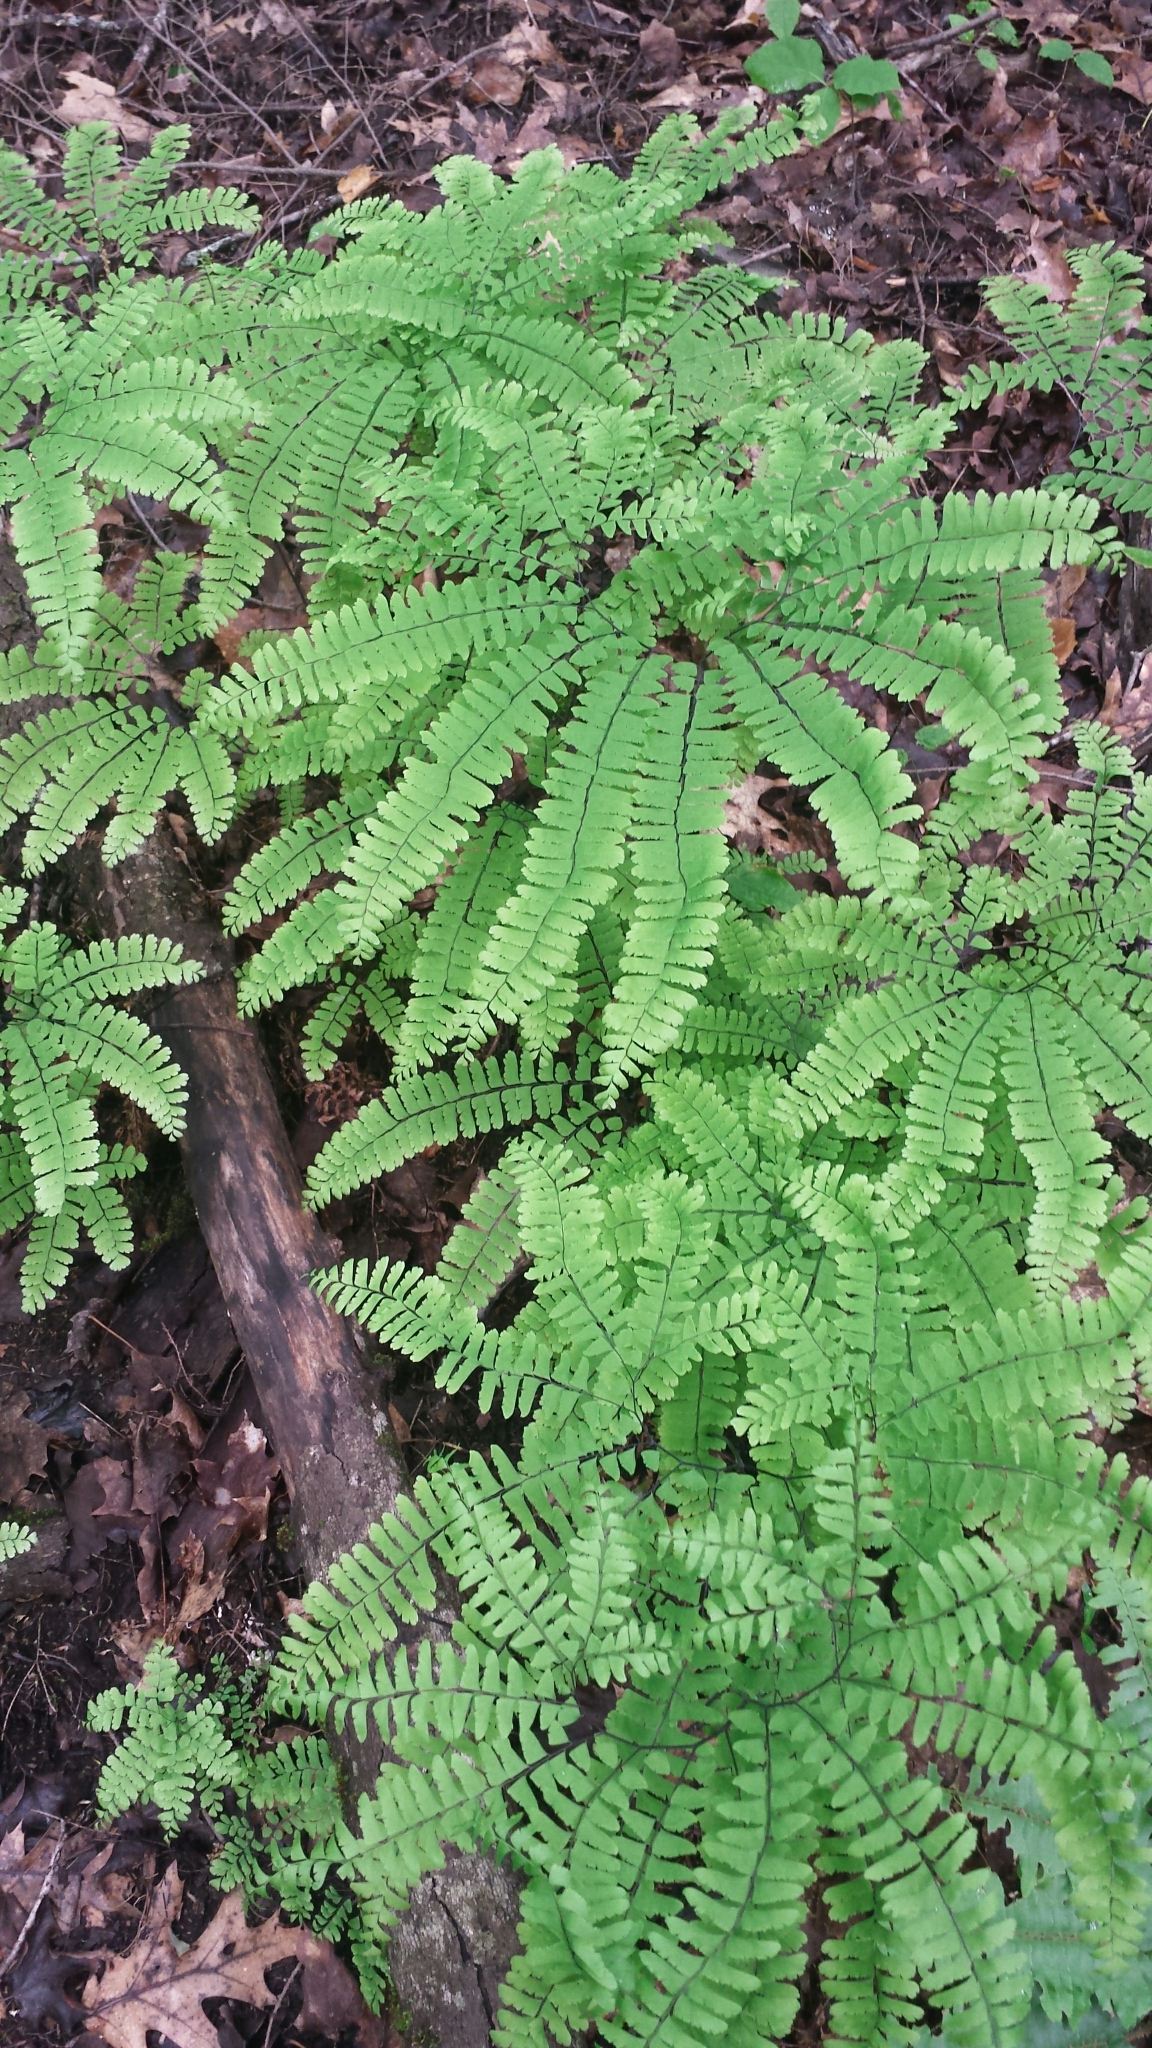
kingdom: Plantae
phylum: Tracheophyta
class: Polypodiopsida
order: Polypodiales
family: Pteridaceae
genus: Adiantum
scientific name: Adiantum pedatum
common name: Five-finger fern
